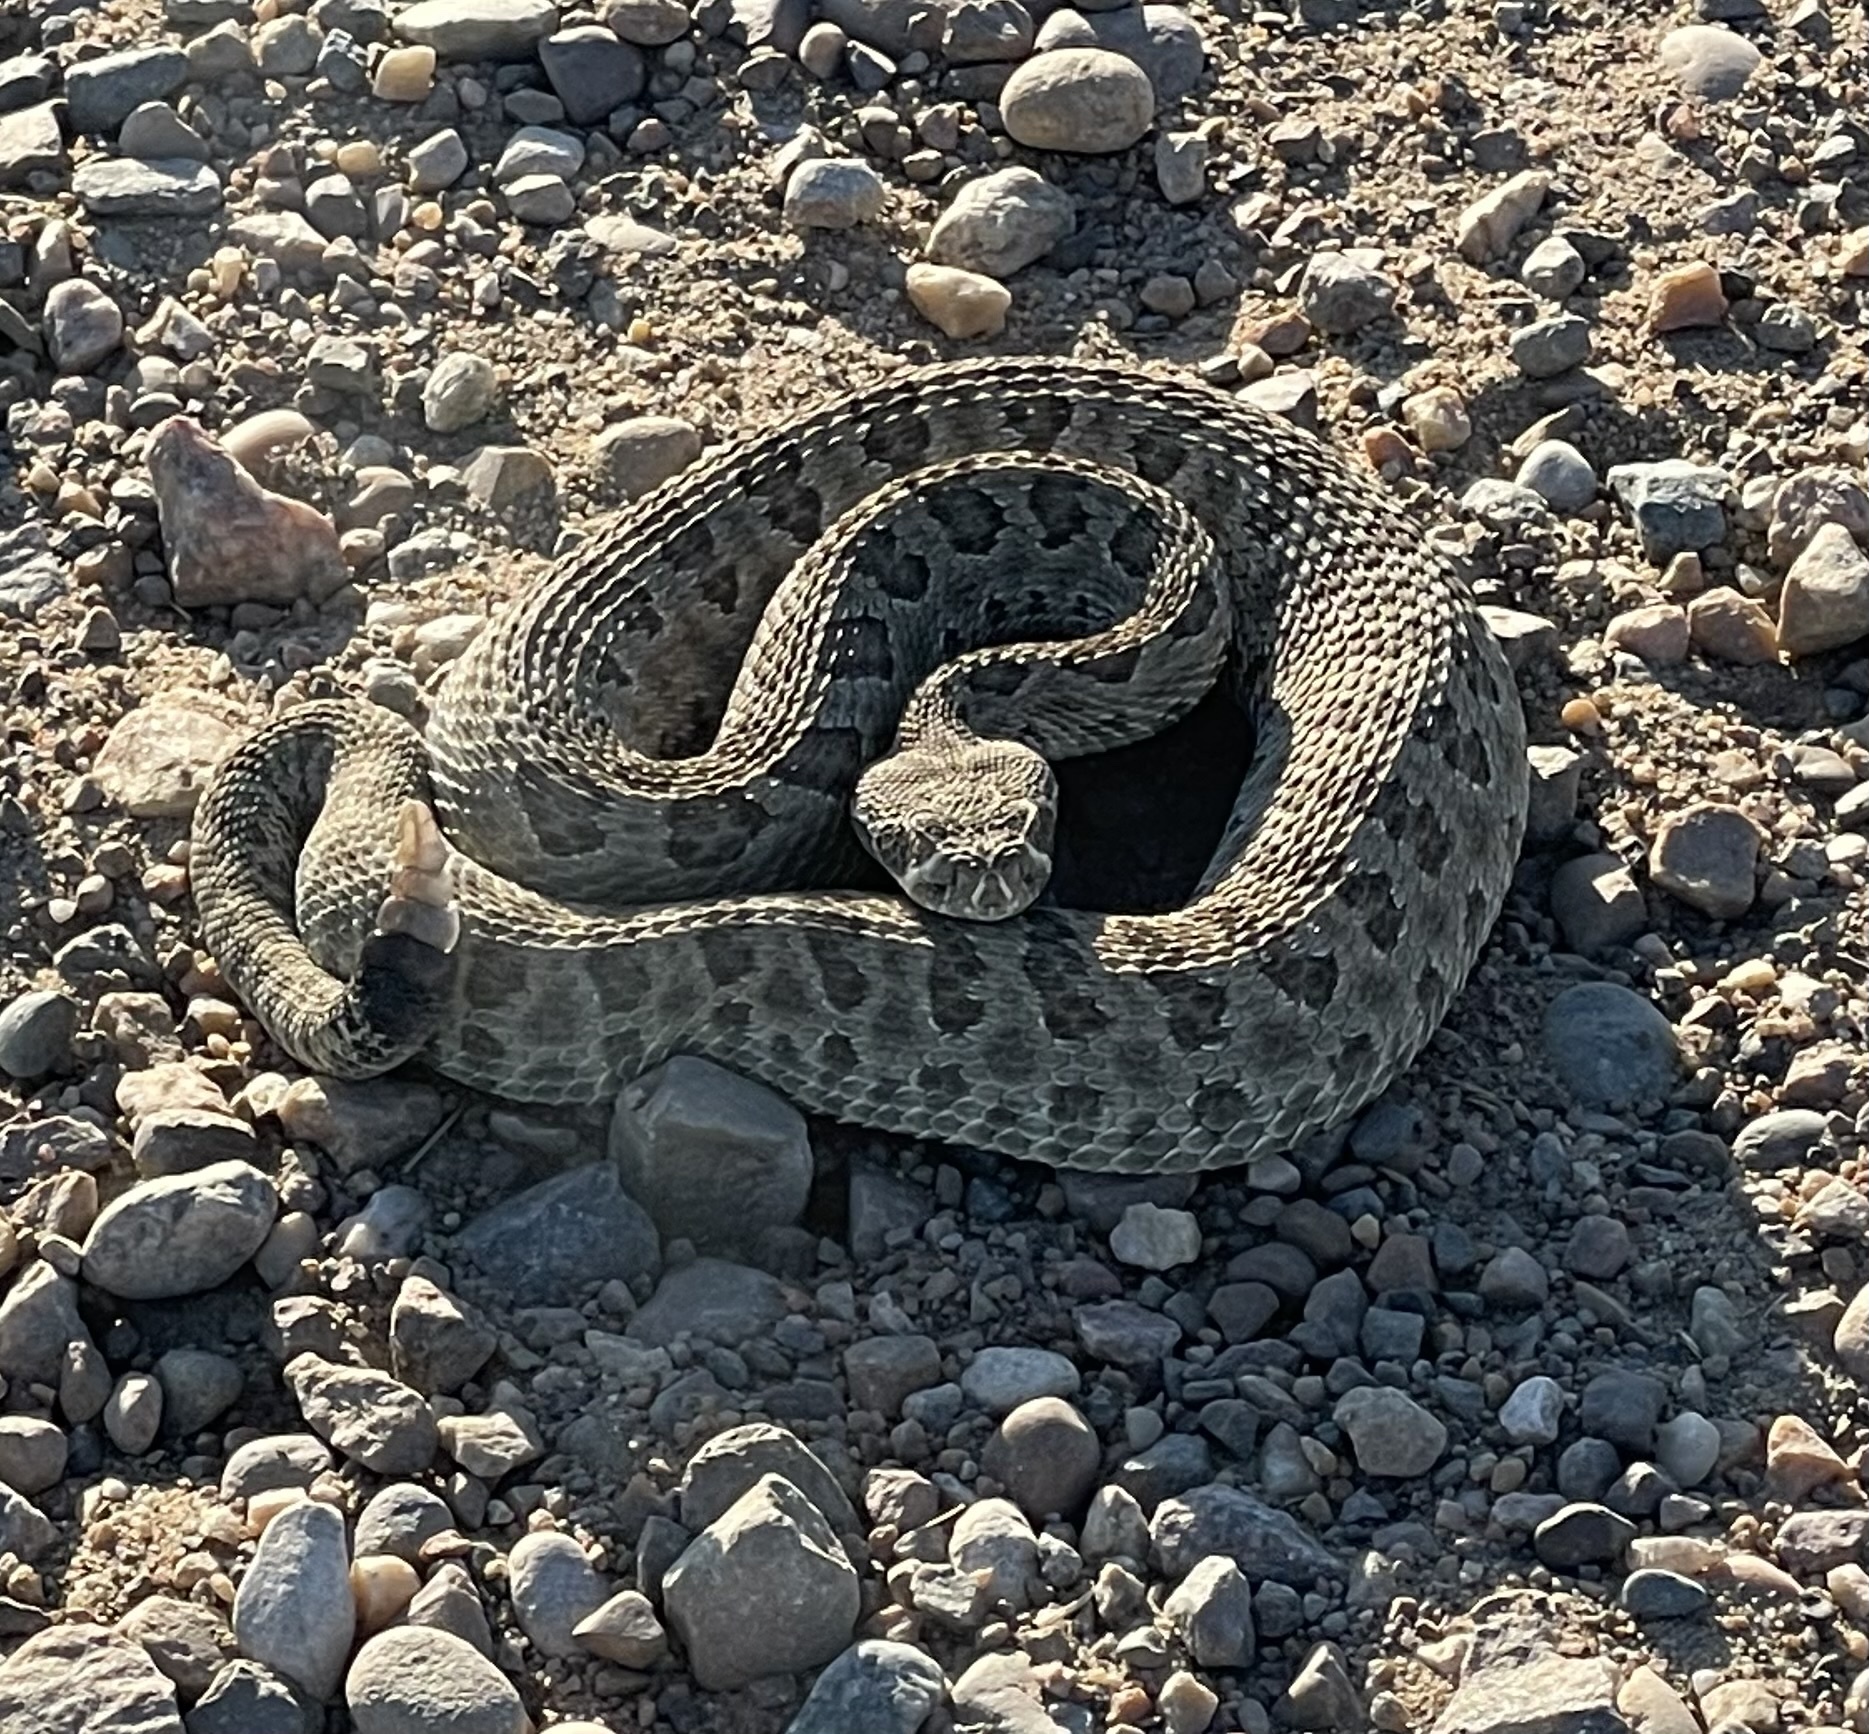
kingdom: Animalia
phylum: Chordata
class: Squamata
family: Viperidae
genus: Crotalus
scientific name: Crotalus viridis
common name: Prairie rattlesnake
